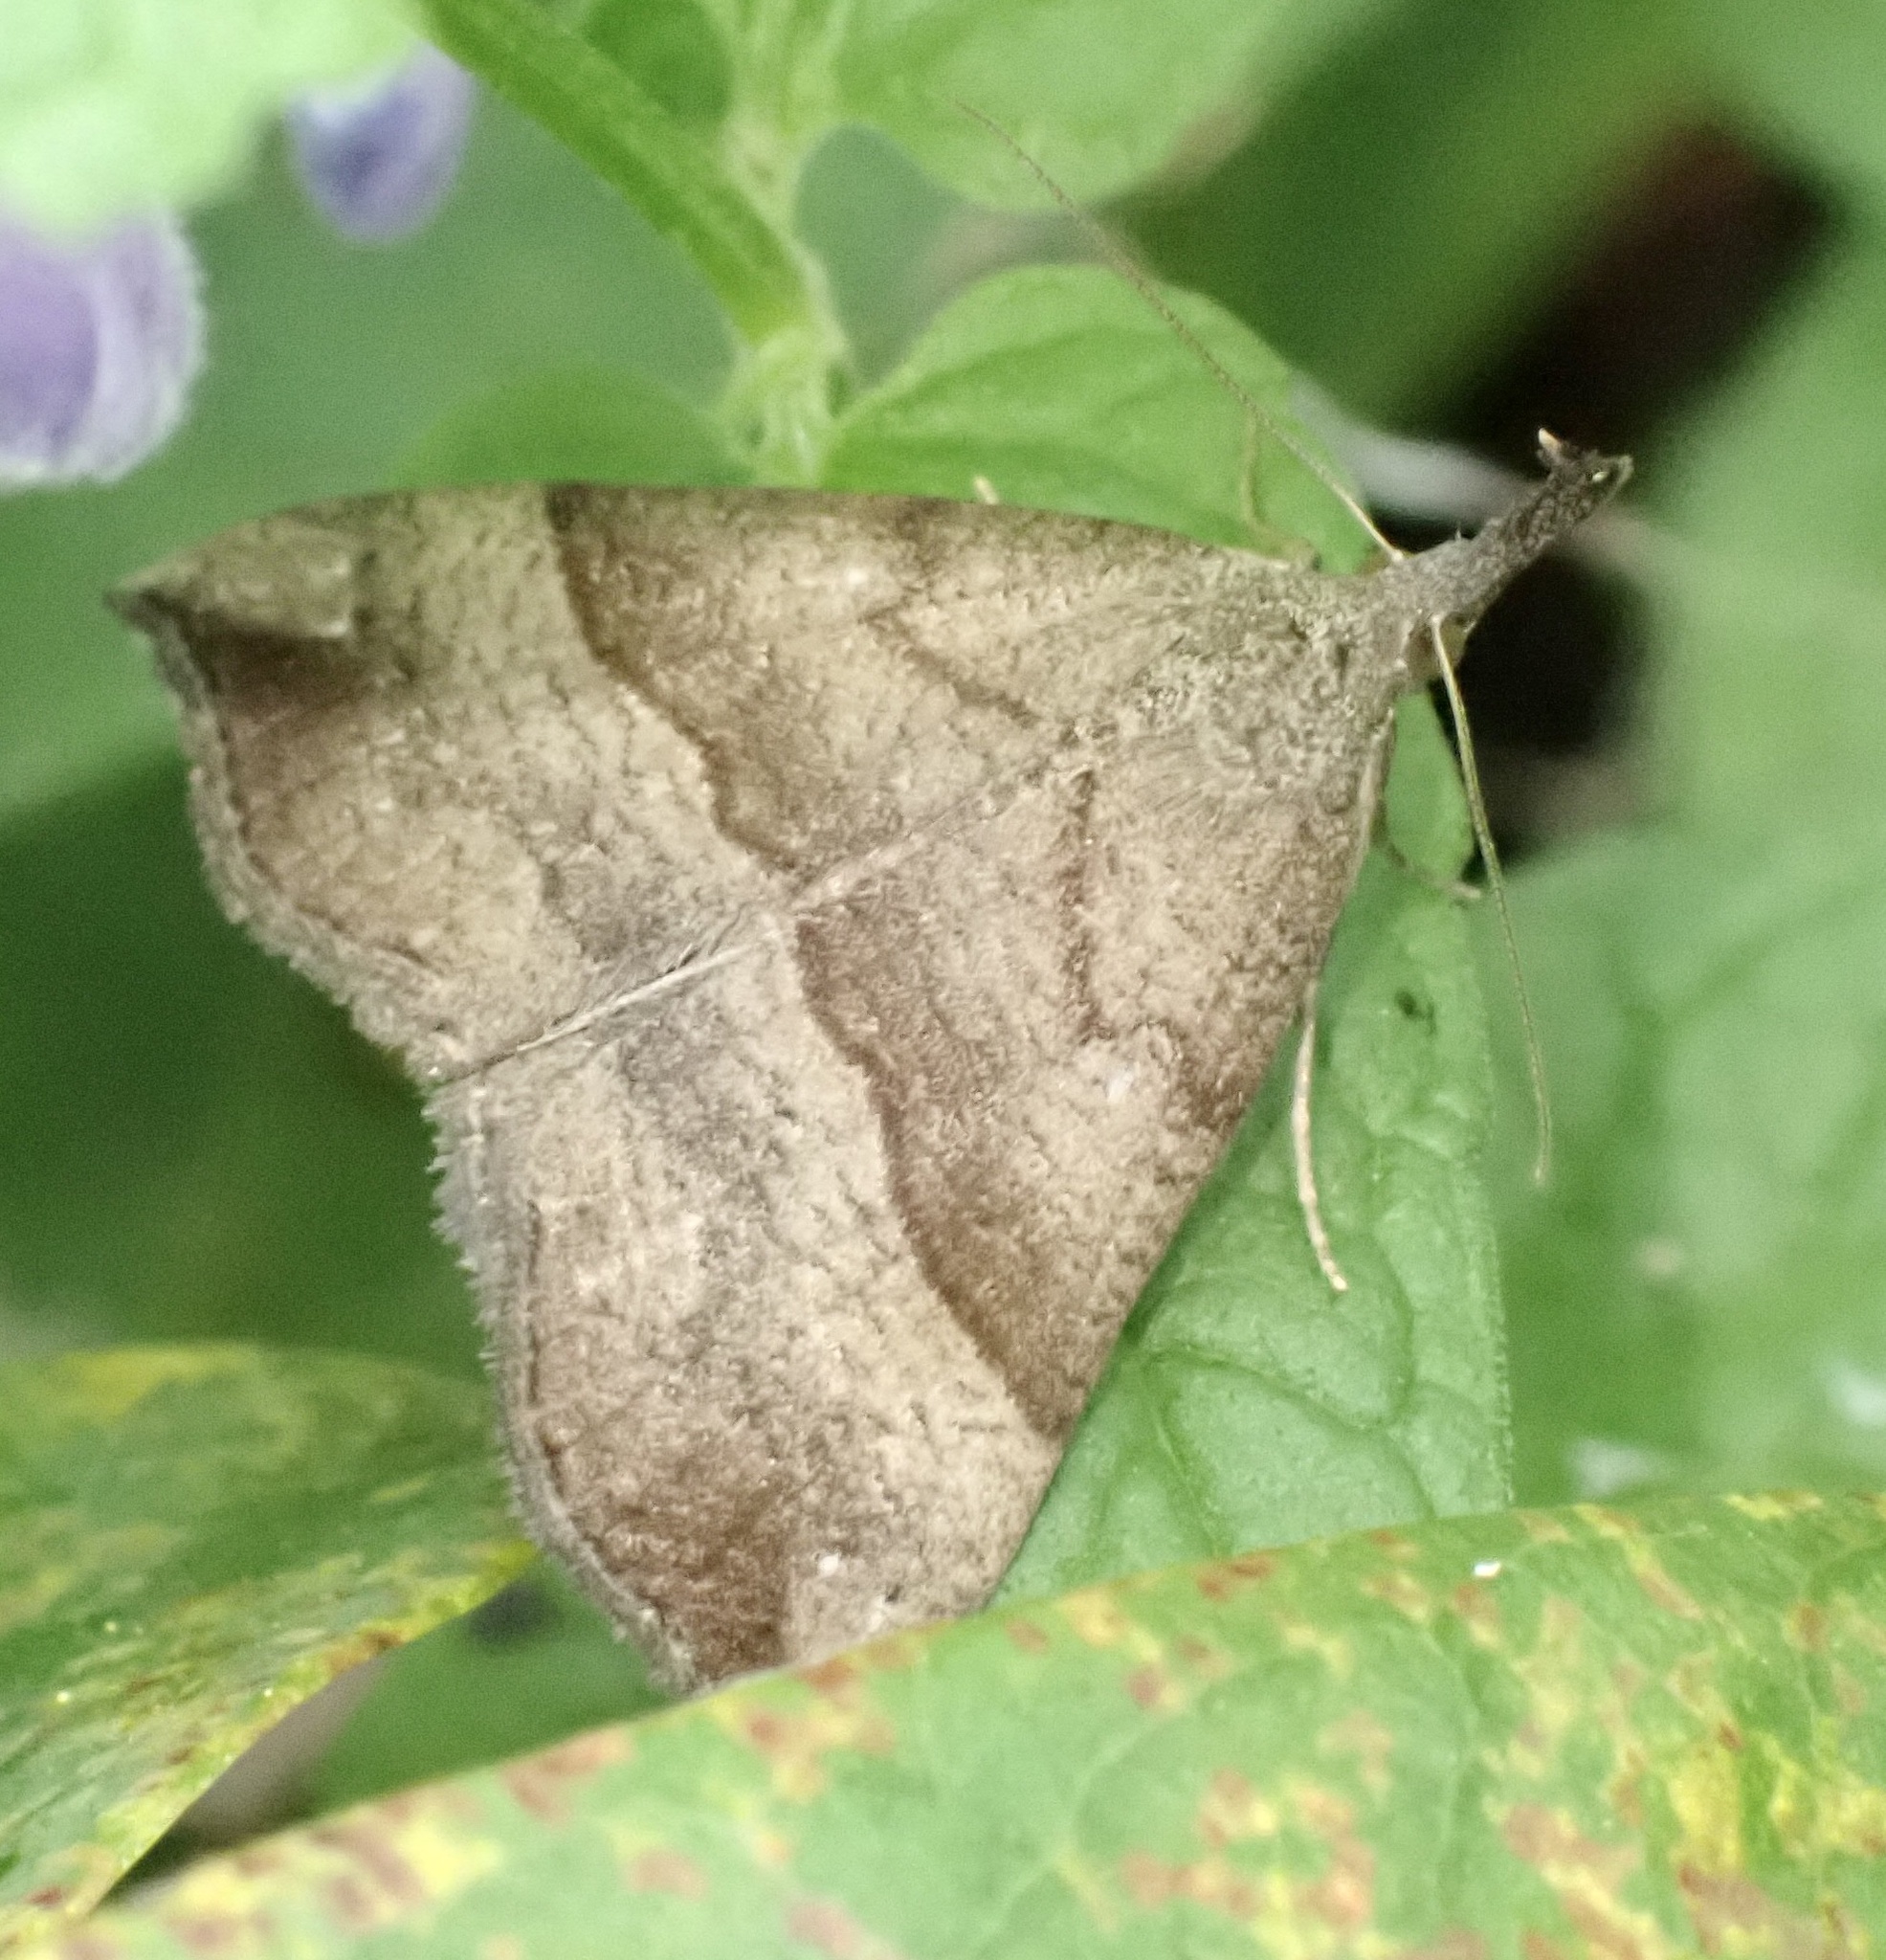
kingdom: Animalia
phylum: Arthropoda
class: Insecta
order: Lepidoptera
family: Erebidae
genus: Hypena
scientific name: Hypena proboscidalis
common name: Snout
